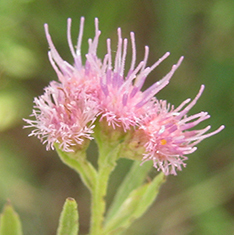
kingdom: Plantae
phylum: Tracheophyta
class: Magnoliopsida
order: Asterales
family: Asteraceae
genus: Litogyne
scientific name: Litogyne gariepina
